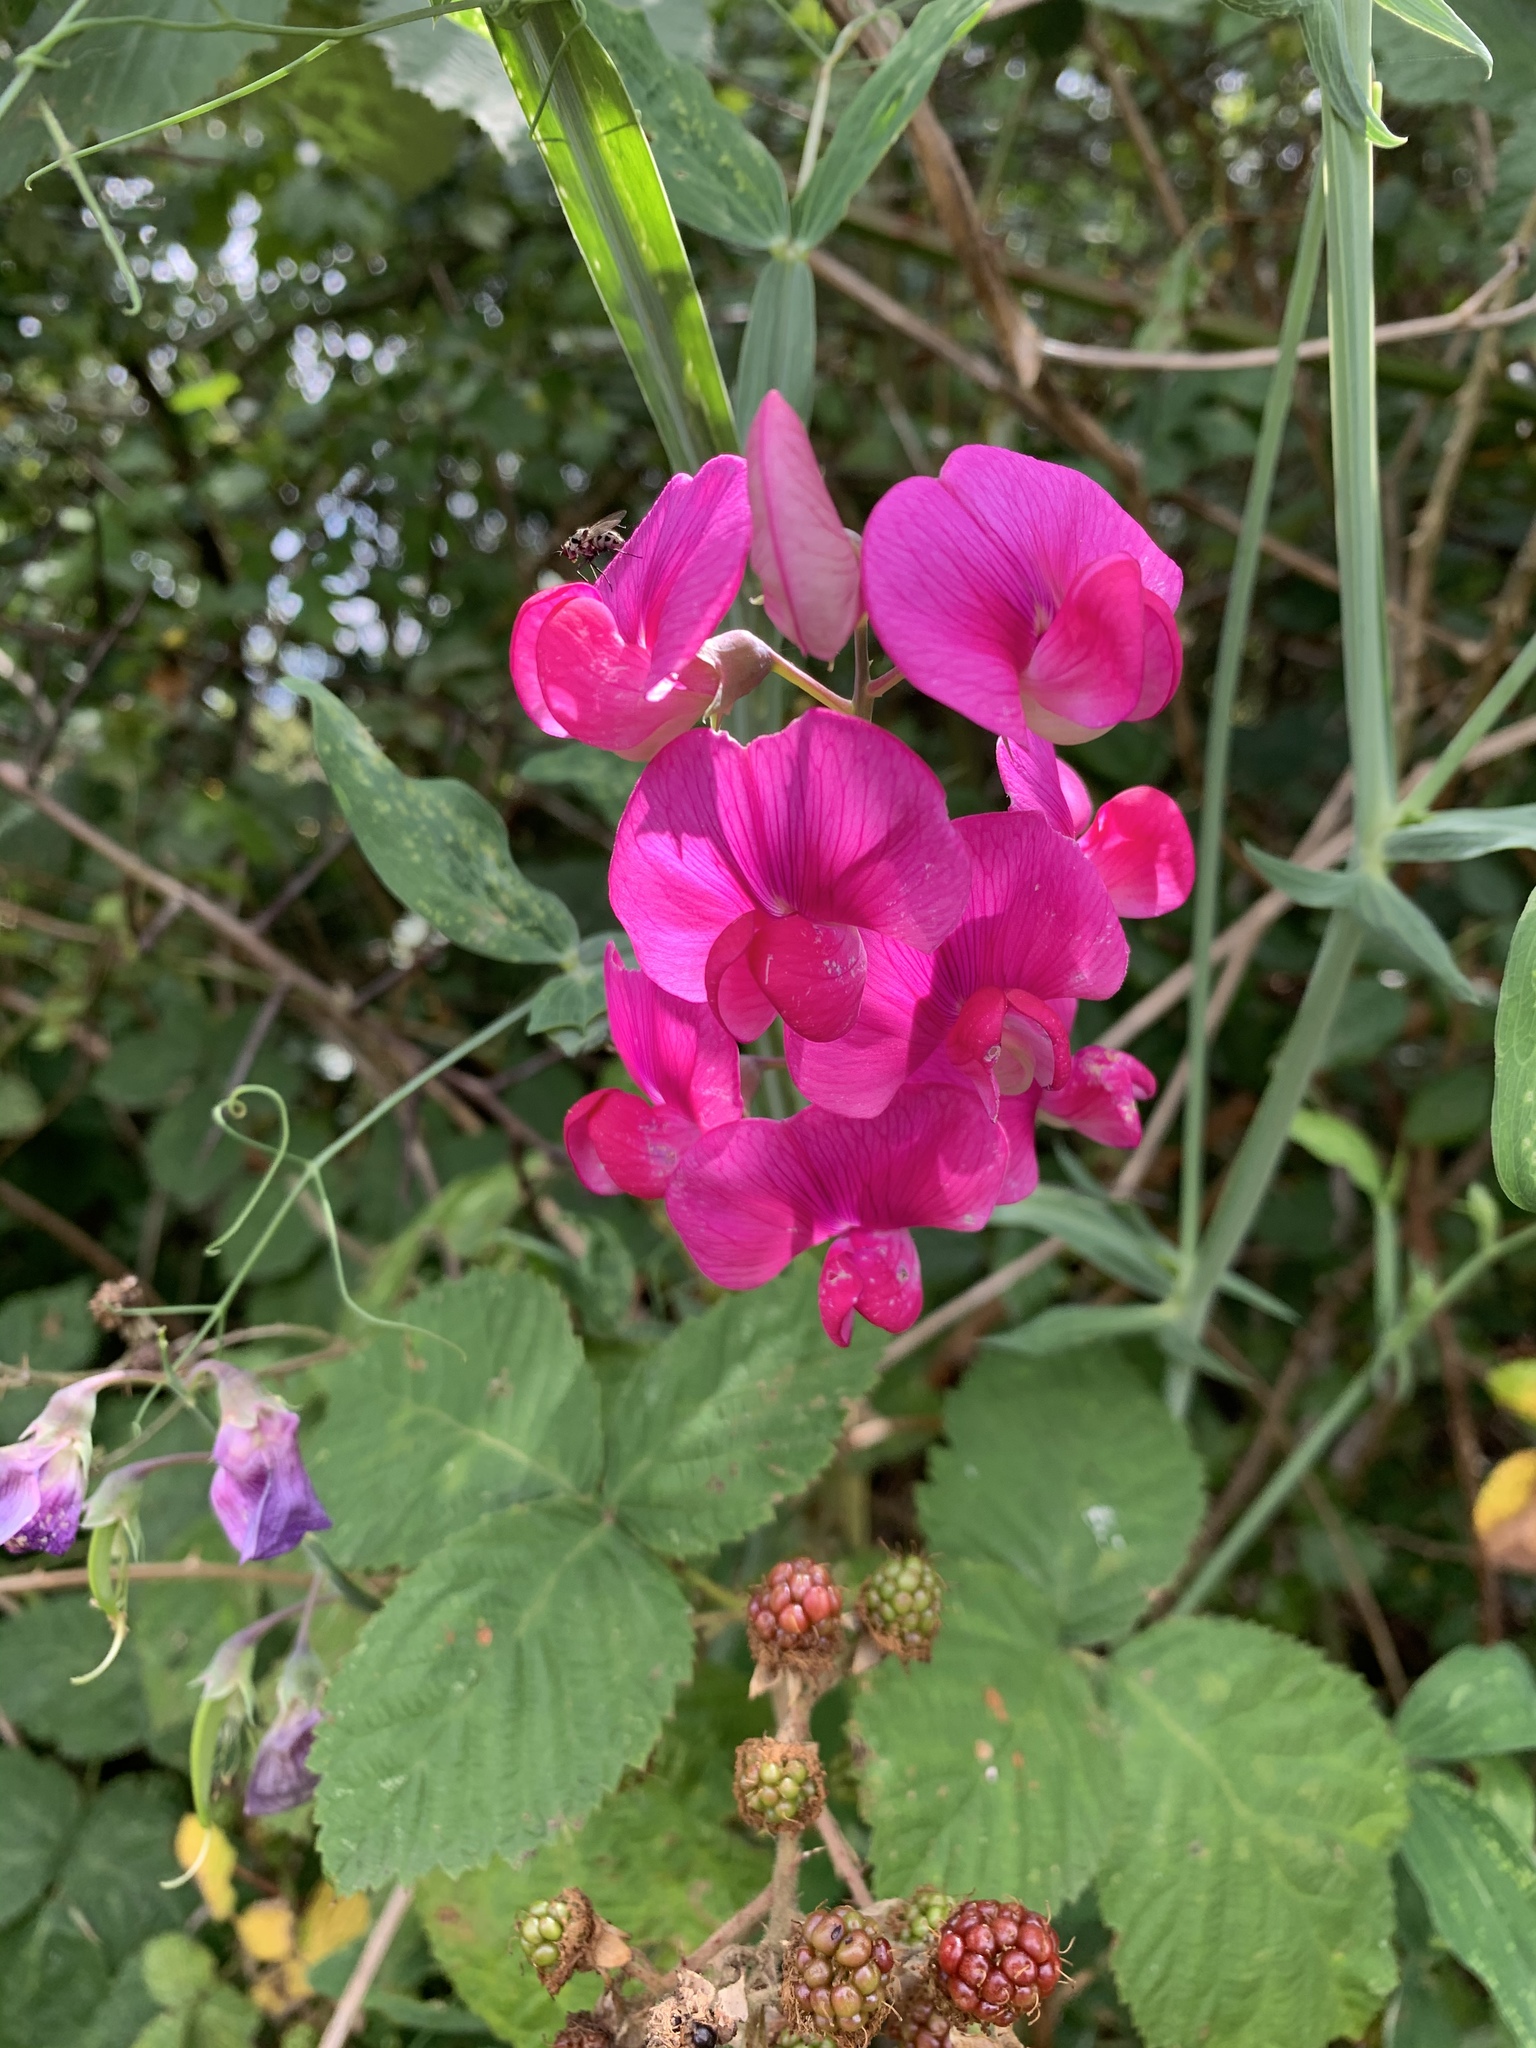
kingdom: Plantae
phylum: Tracheophyta
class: Magnoliopsida
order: Fabales
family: Fabaceae
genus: Lathyrus
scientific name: Lathyrus latifolius
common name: Perennial pea
